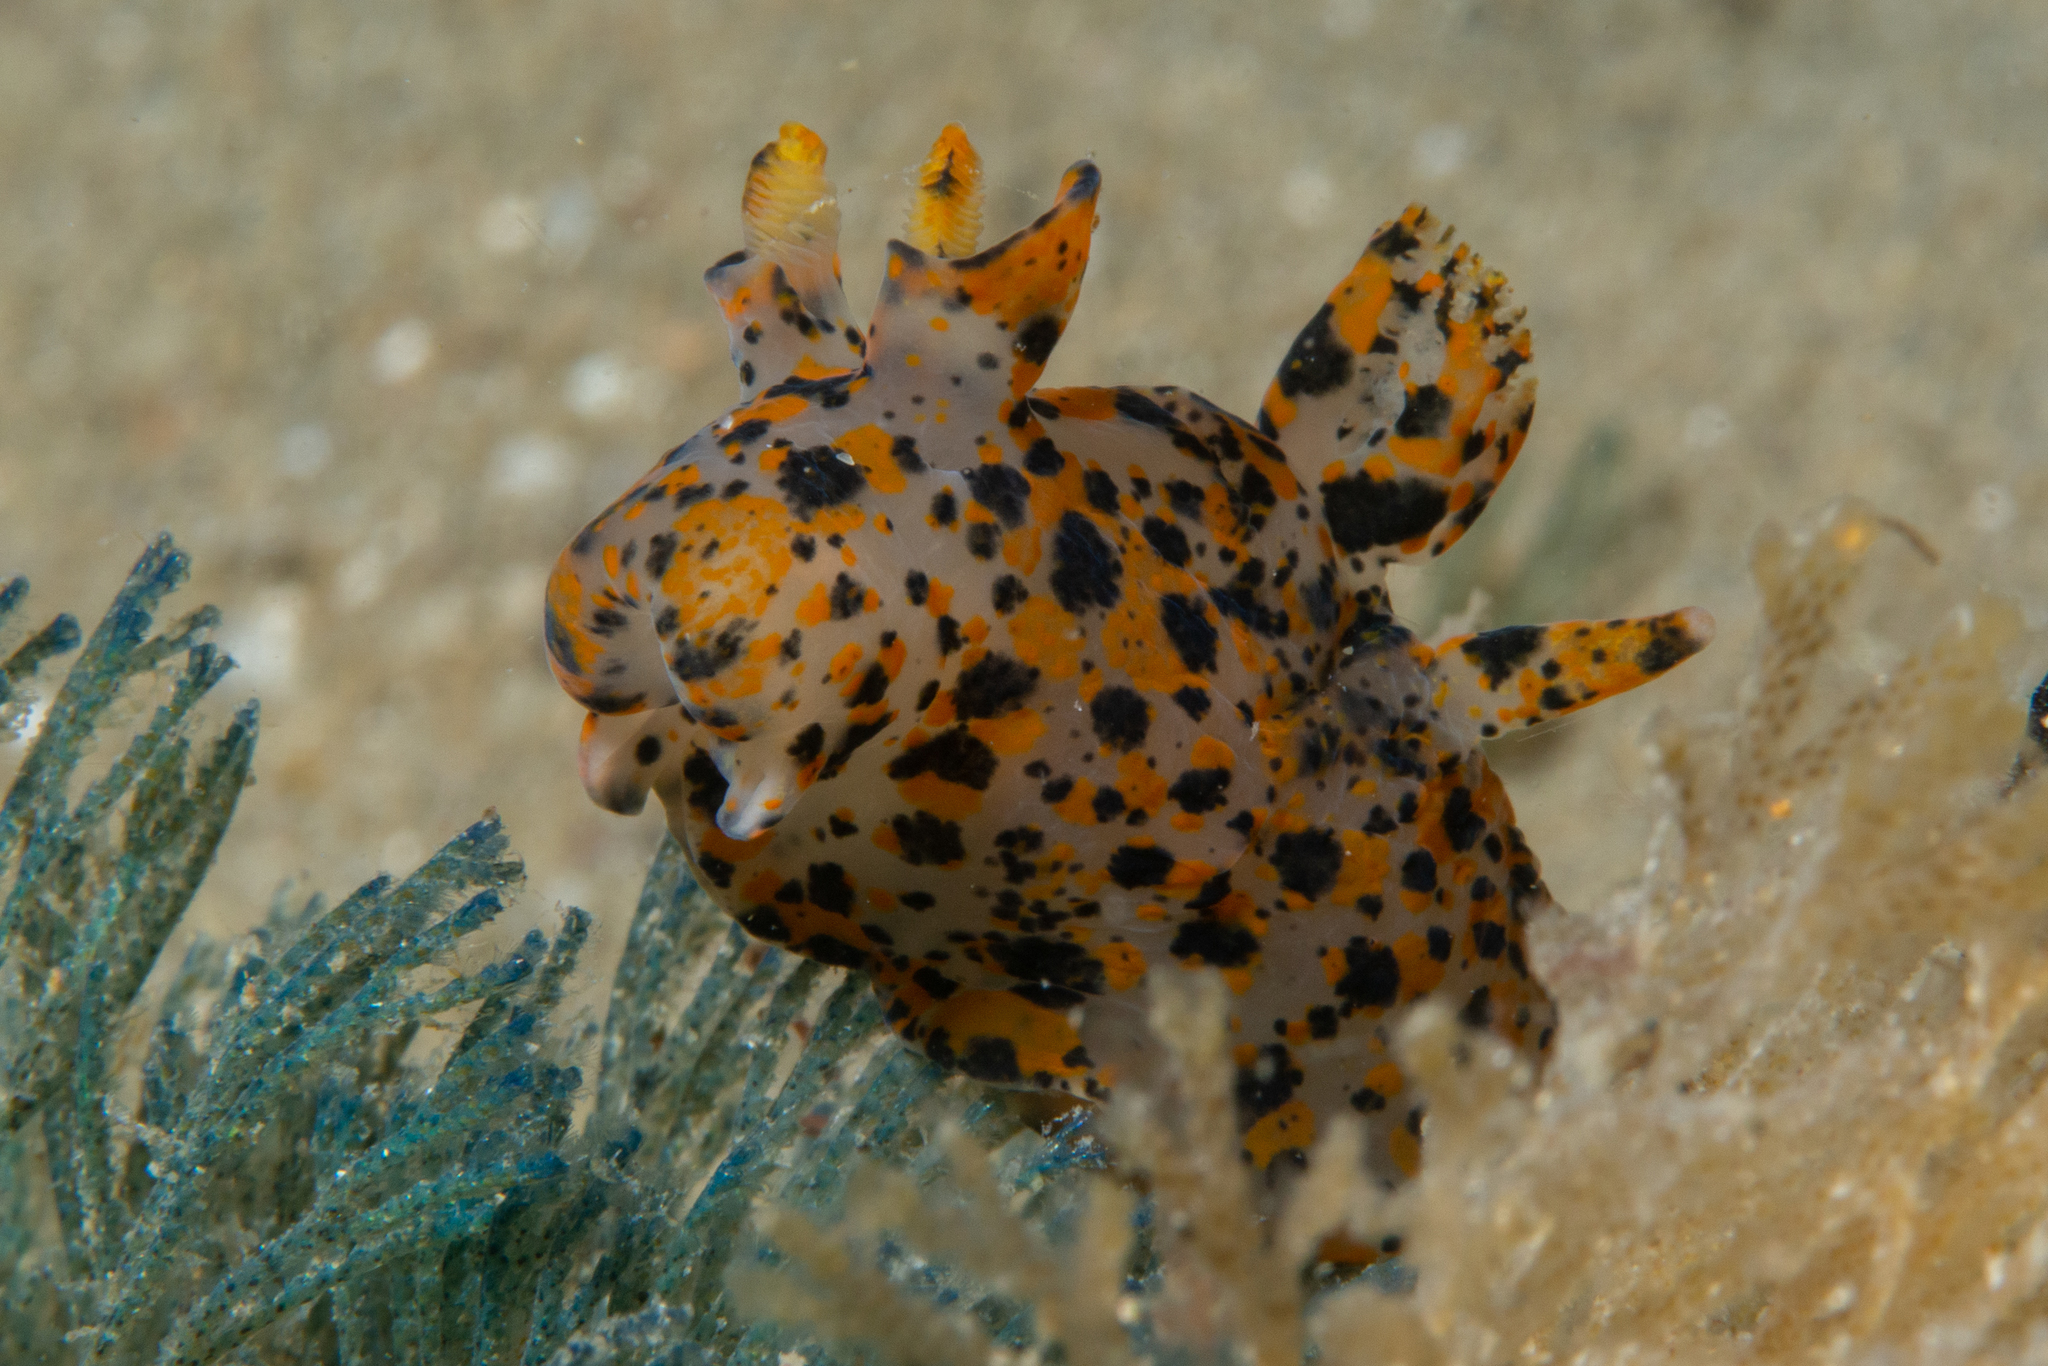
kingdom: Animalia
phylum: Mollusca
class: Gastropoda
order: Nudibranchia
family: Polyceridae
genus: Thecacera
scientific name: Thecacera pennigera
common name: Thecacera
